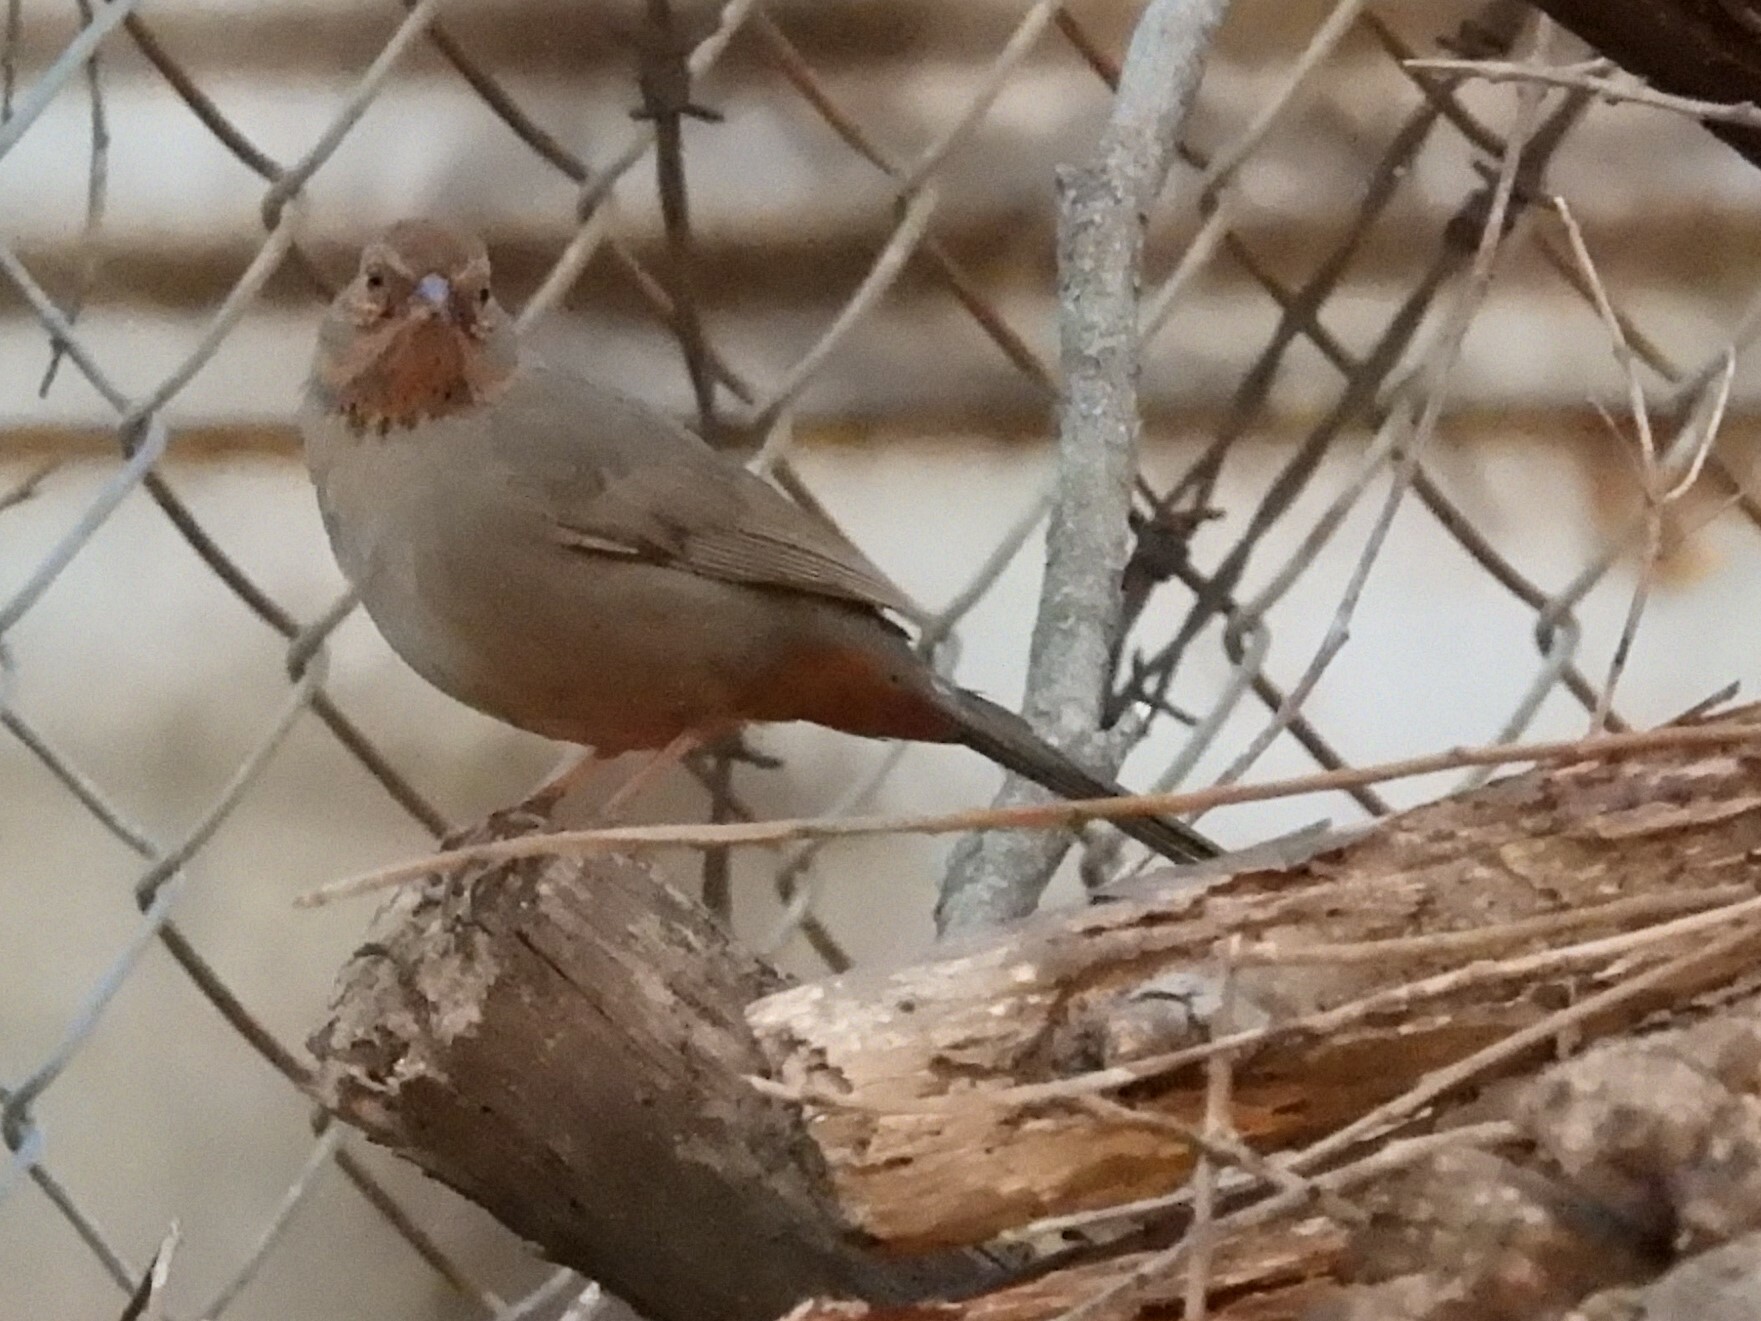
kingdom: Animalia
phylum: Chordata
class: Aves
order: Passeriformes
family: Passerellidae
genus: Melozone
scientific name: Melozone crissalis
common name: California towhee
